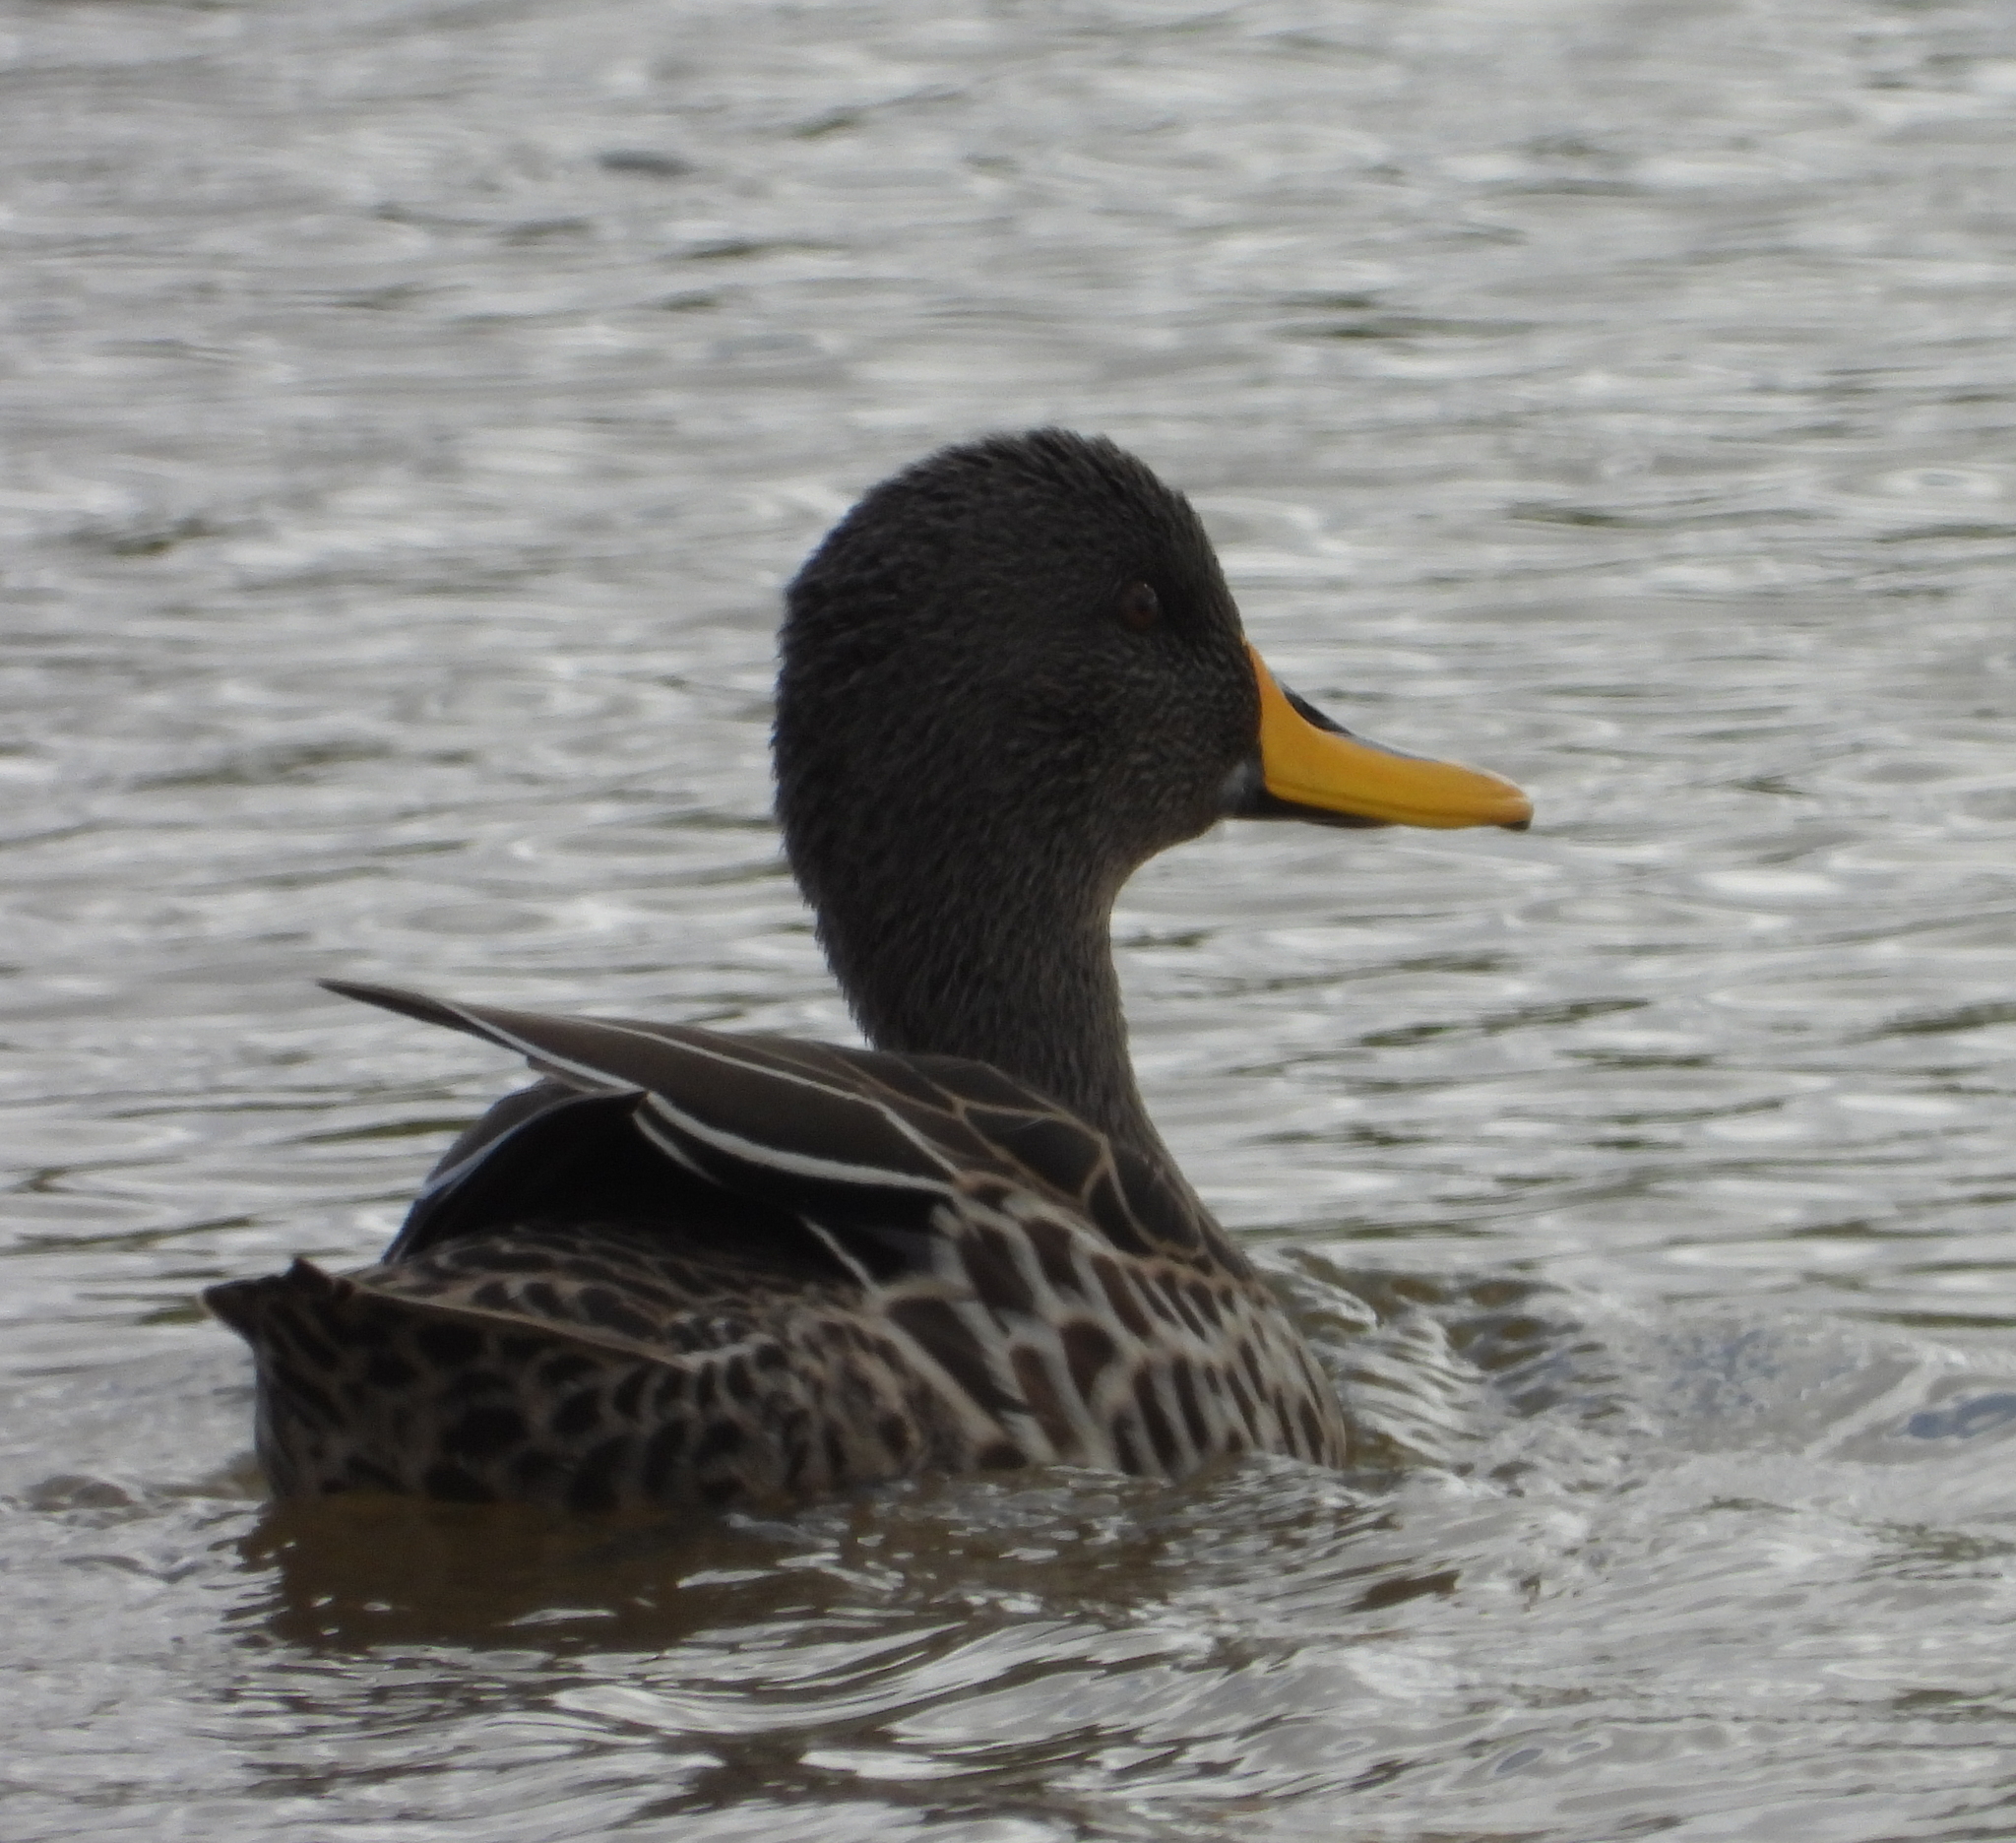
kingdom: Animalia
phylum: Chordata
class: Aves
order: Anseriformes
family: Anatidae
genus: Anas
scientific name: Anas undulata
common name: Yellow-billed duck
